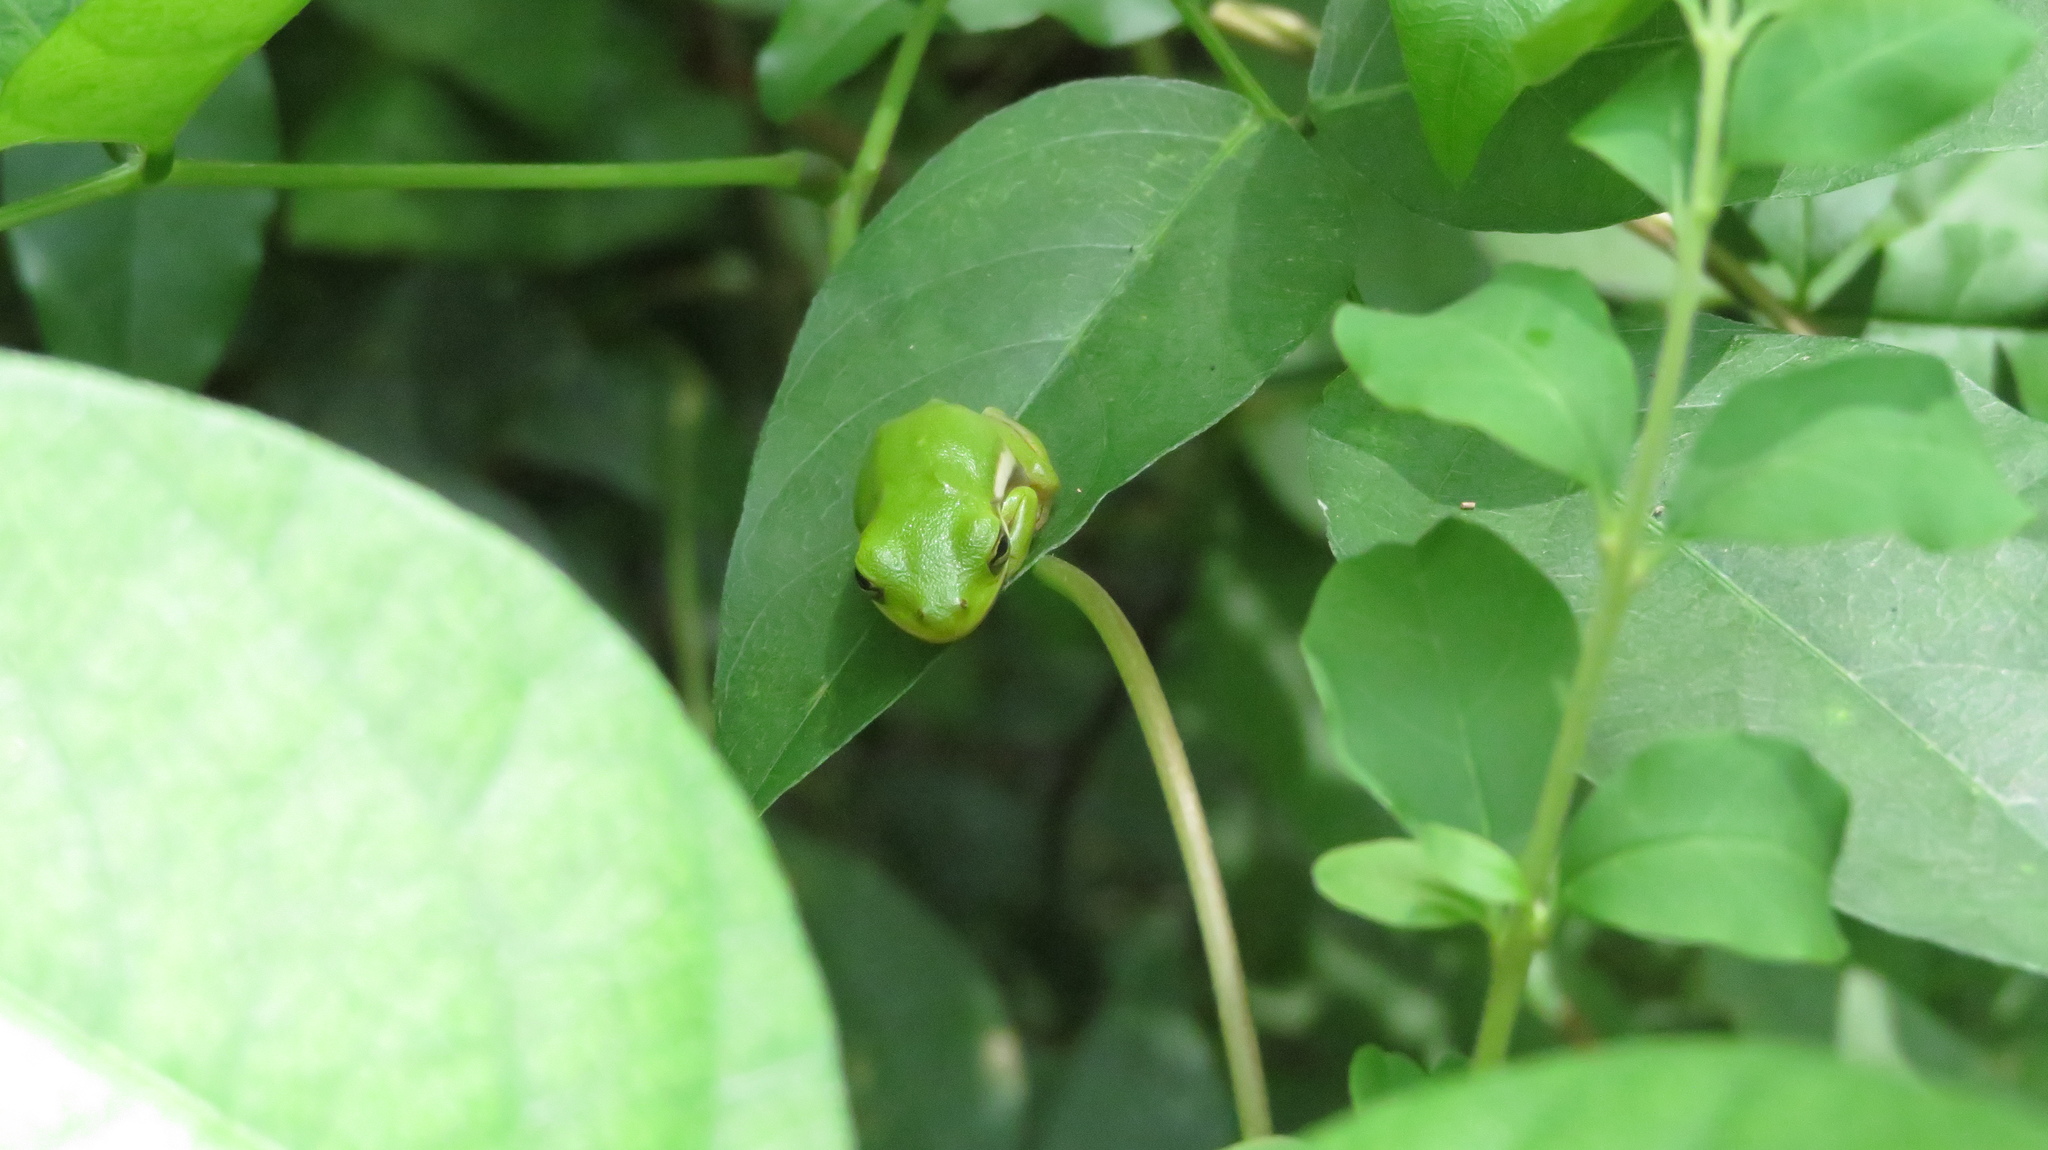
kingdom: Animalia
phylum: Chordata
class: Amphibia
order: Anura
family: Hylidae
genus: Dryophytes
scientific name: Dryophytes cinereus
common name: Green treefrog
